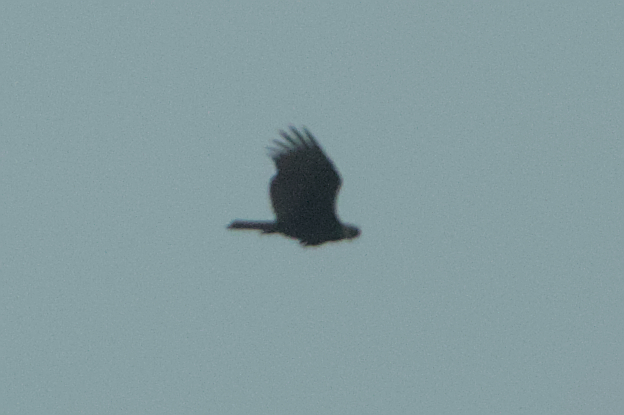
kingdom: Animalia
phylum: Chordata
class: Aves
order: Accipitriformes
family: Cathartidae
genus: Cathartes
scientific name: Cathartes aura
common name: Turkey vulture
